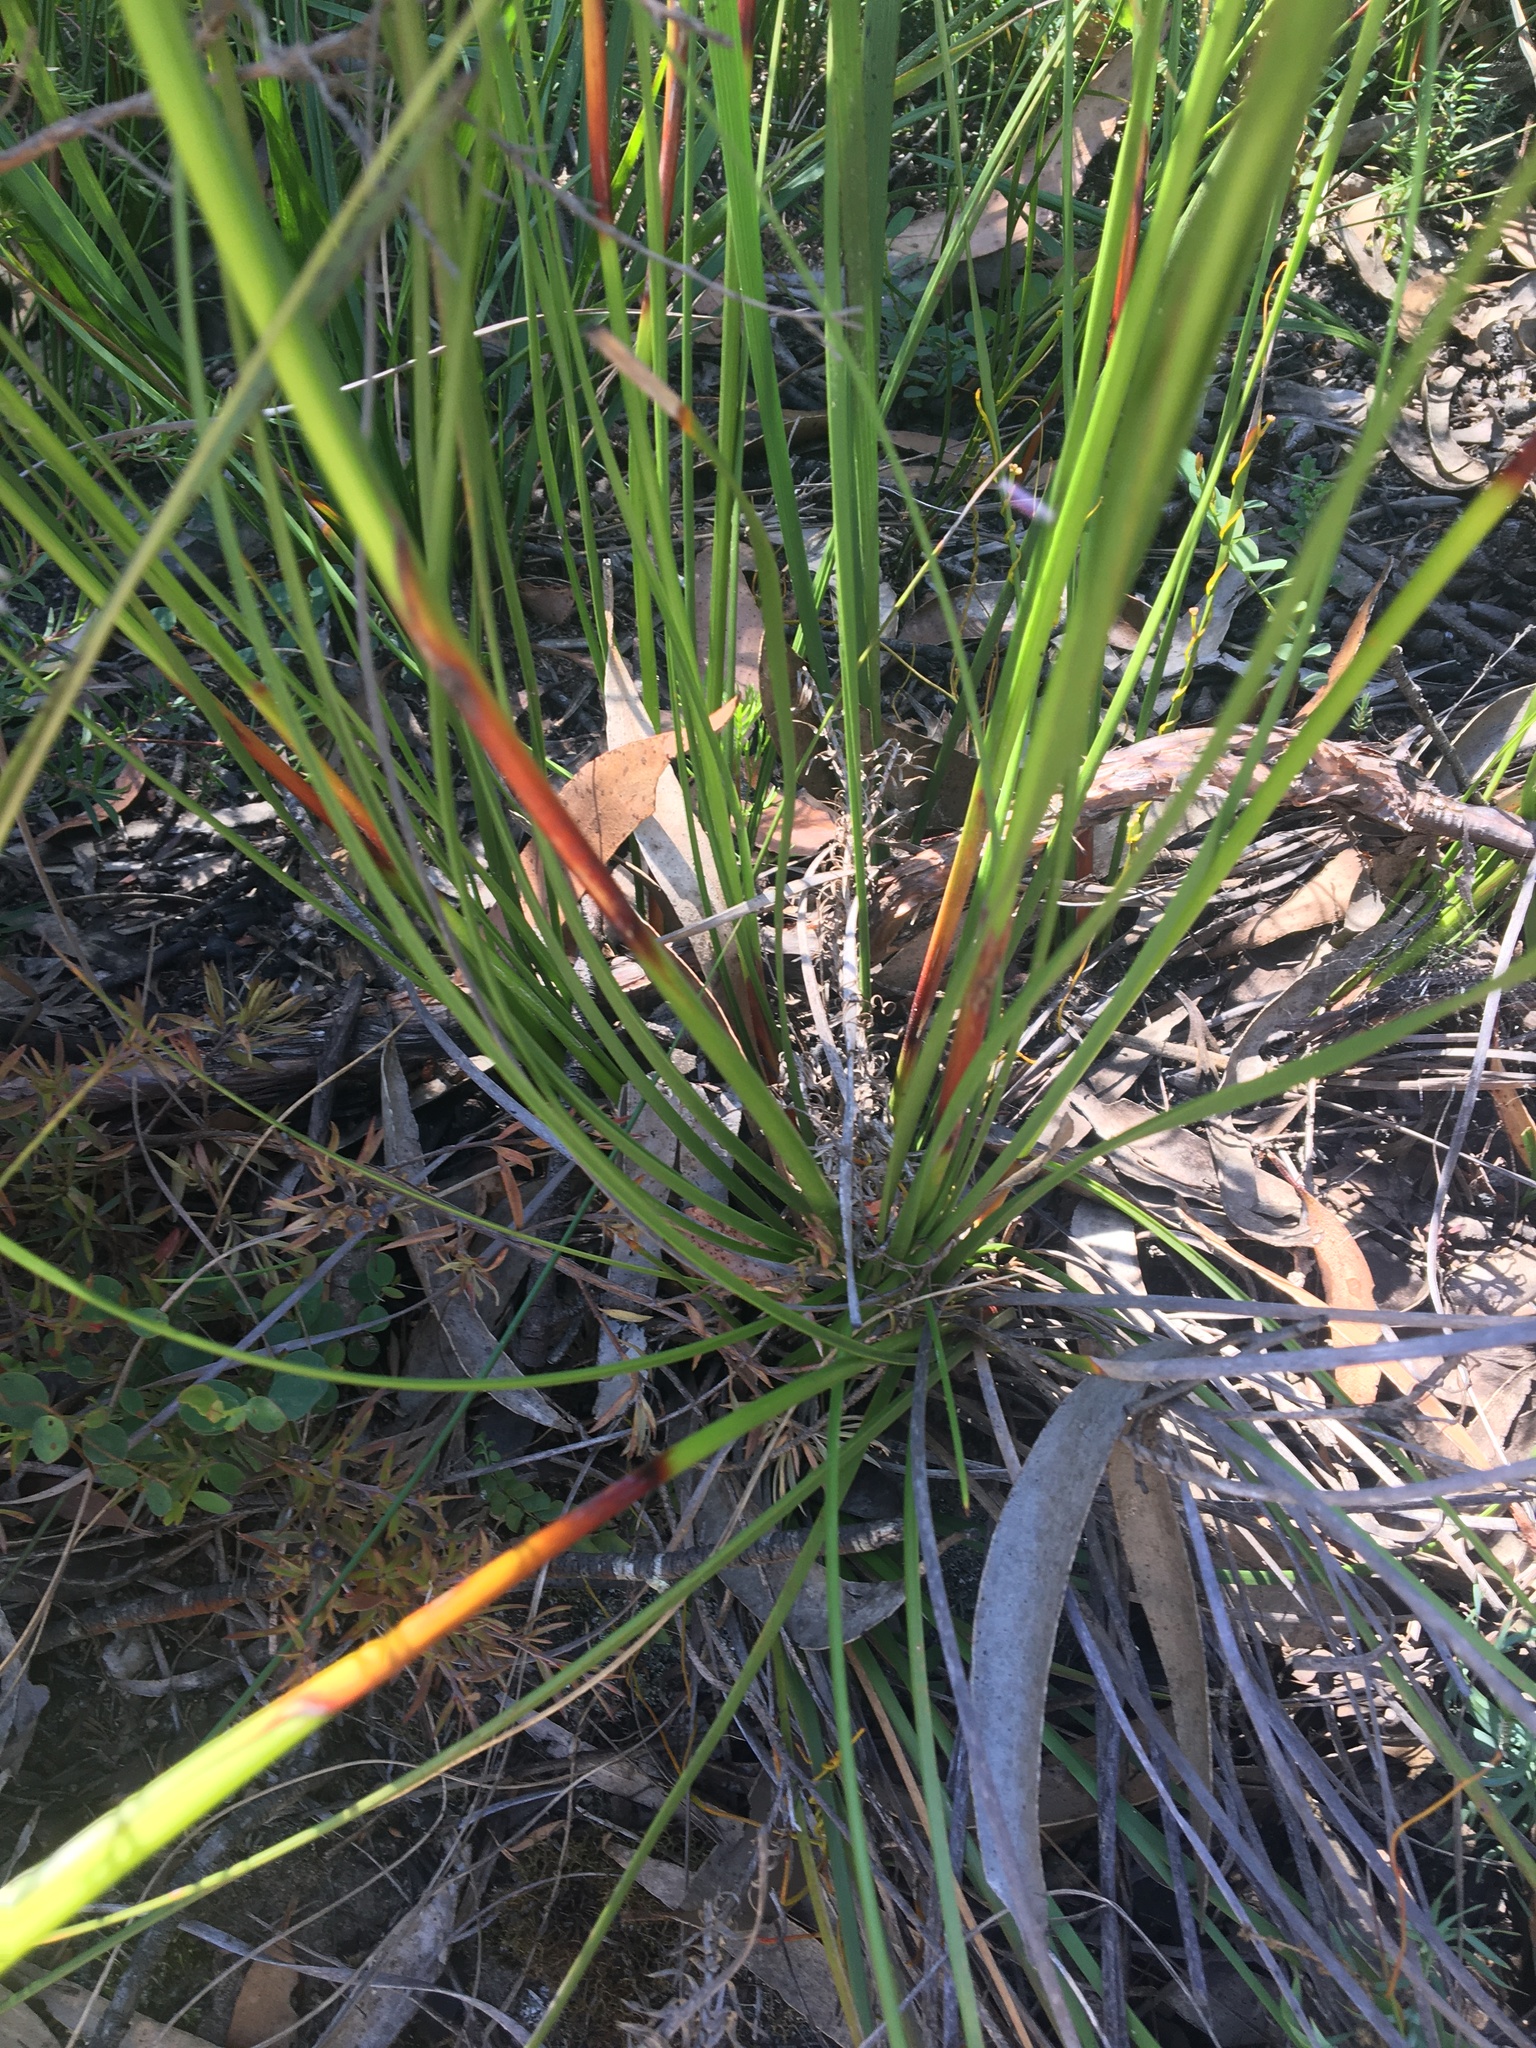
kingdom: Plantae
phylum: Tracheophyta
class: Liliopsida
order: Poales
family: Cyperaceae
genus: Cyathochaeta
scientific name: Cyathochaeta diandra
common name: Sheath rush
